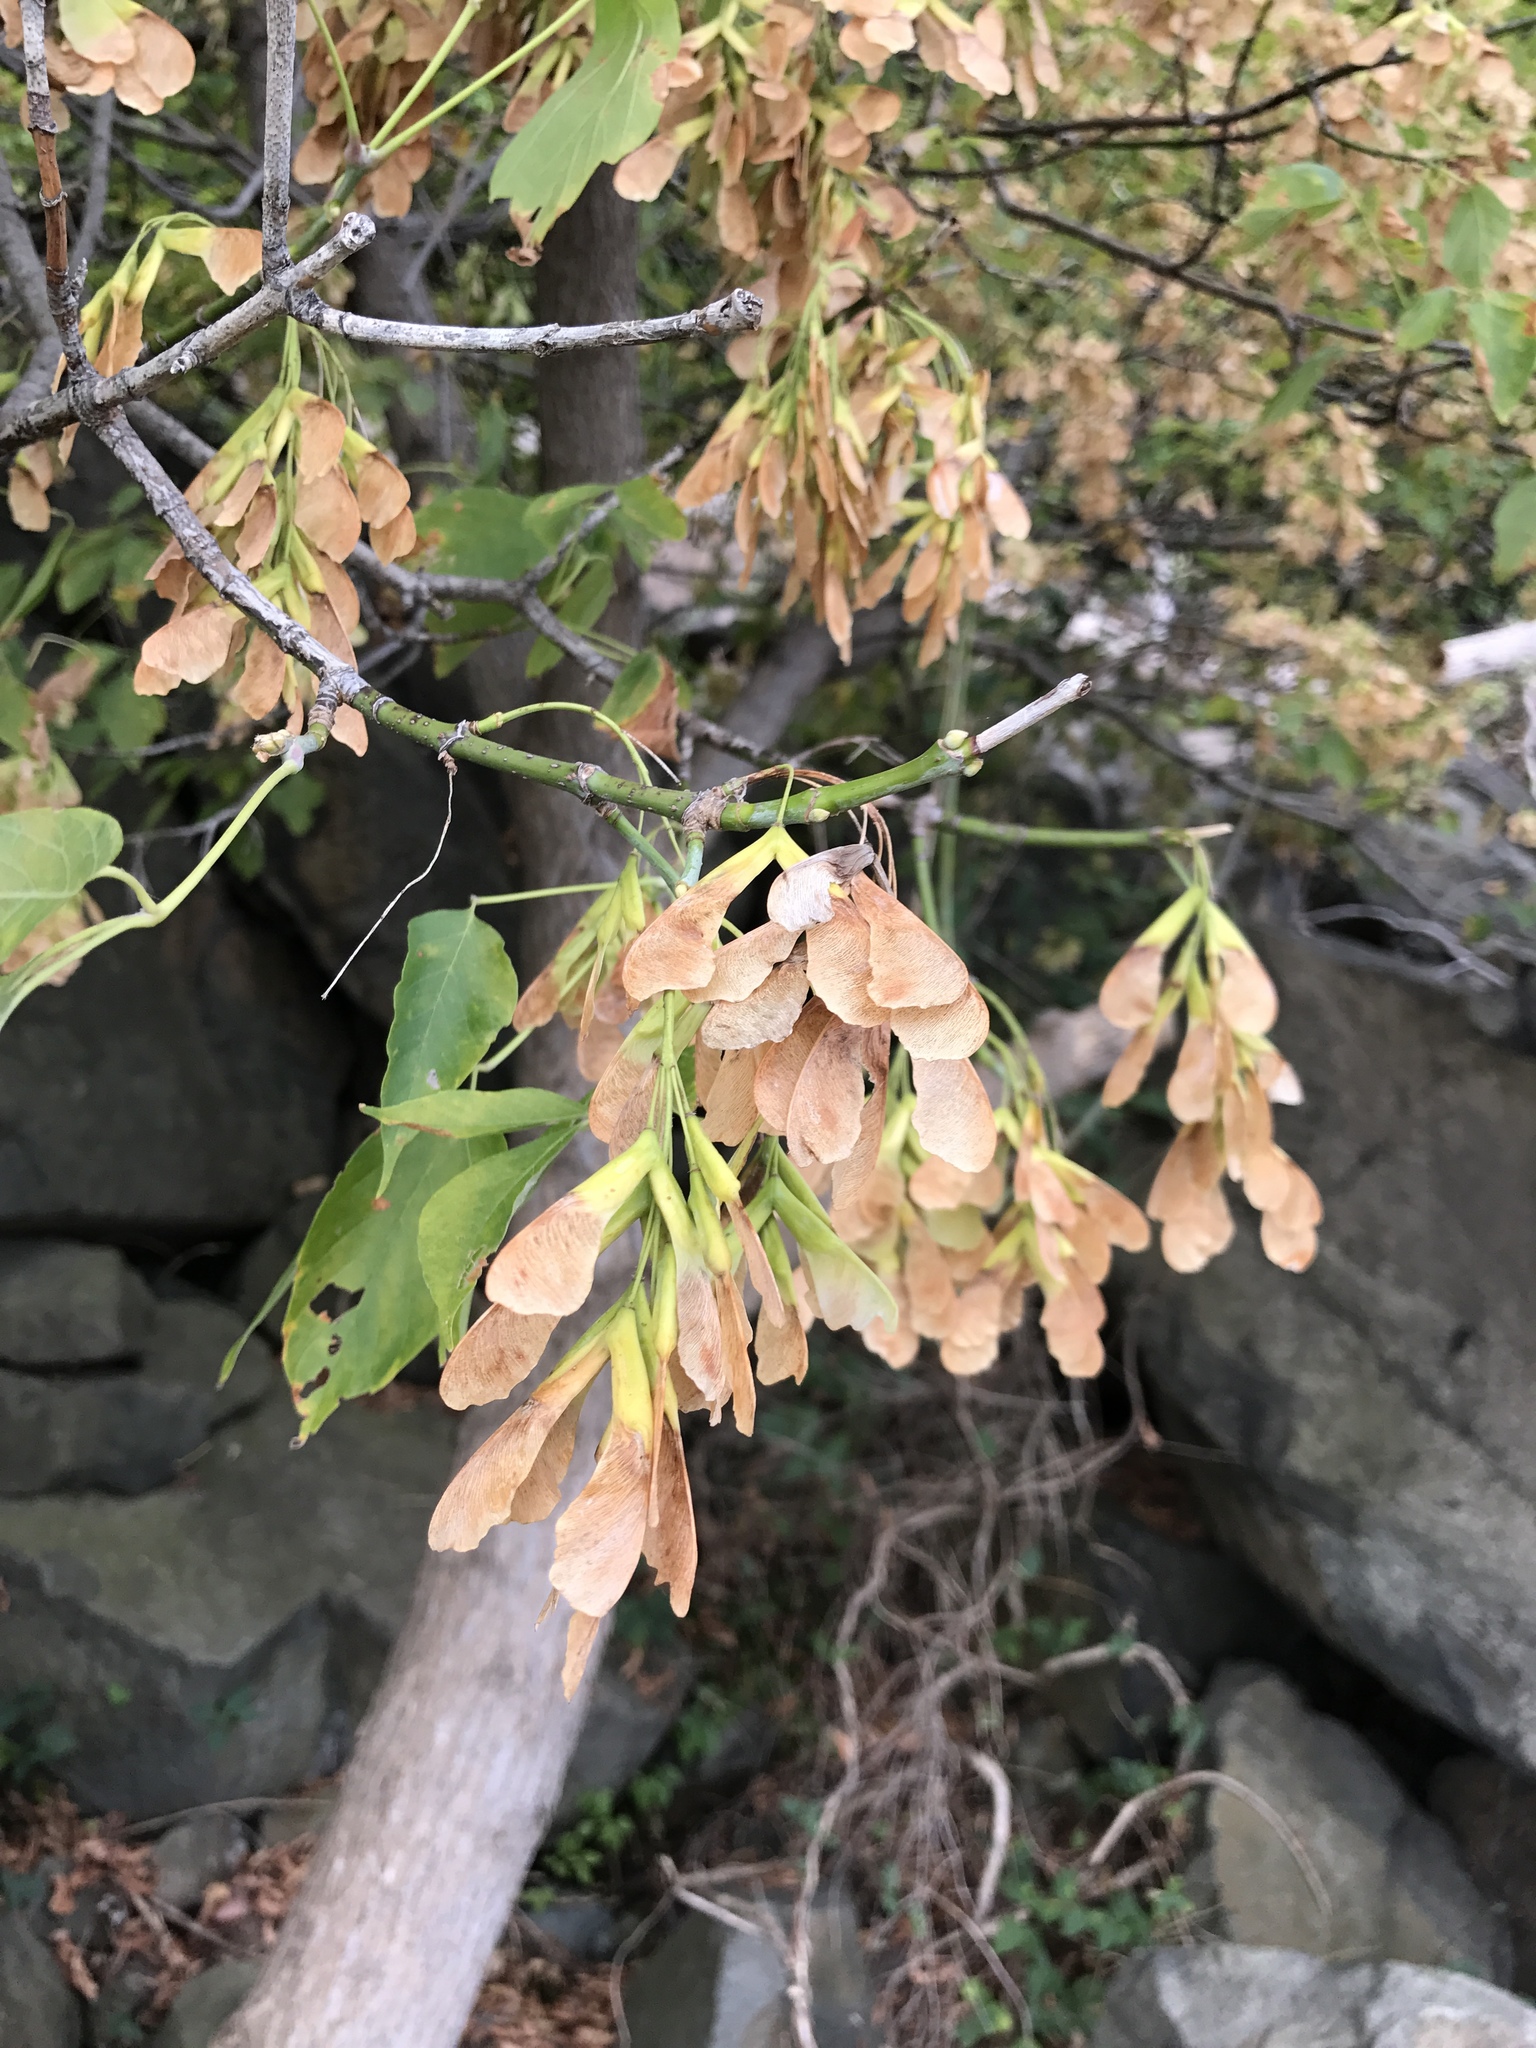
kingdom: Plantae
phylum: Tracheophyta
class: Magnoliopsida
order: Sapindales
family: Sapindaceae
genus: Acer
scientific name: Acer negundo
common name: Ashleaf maple
